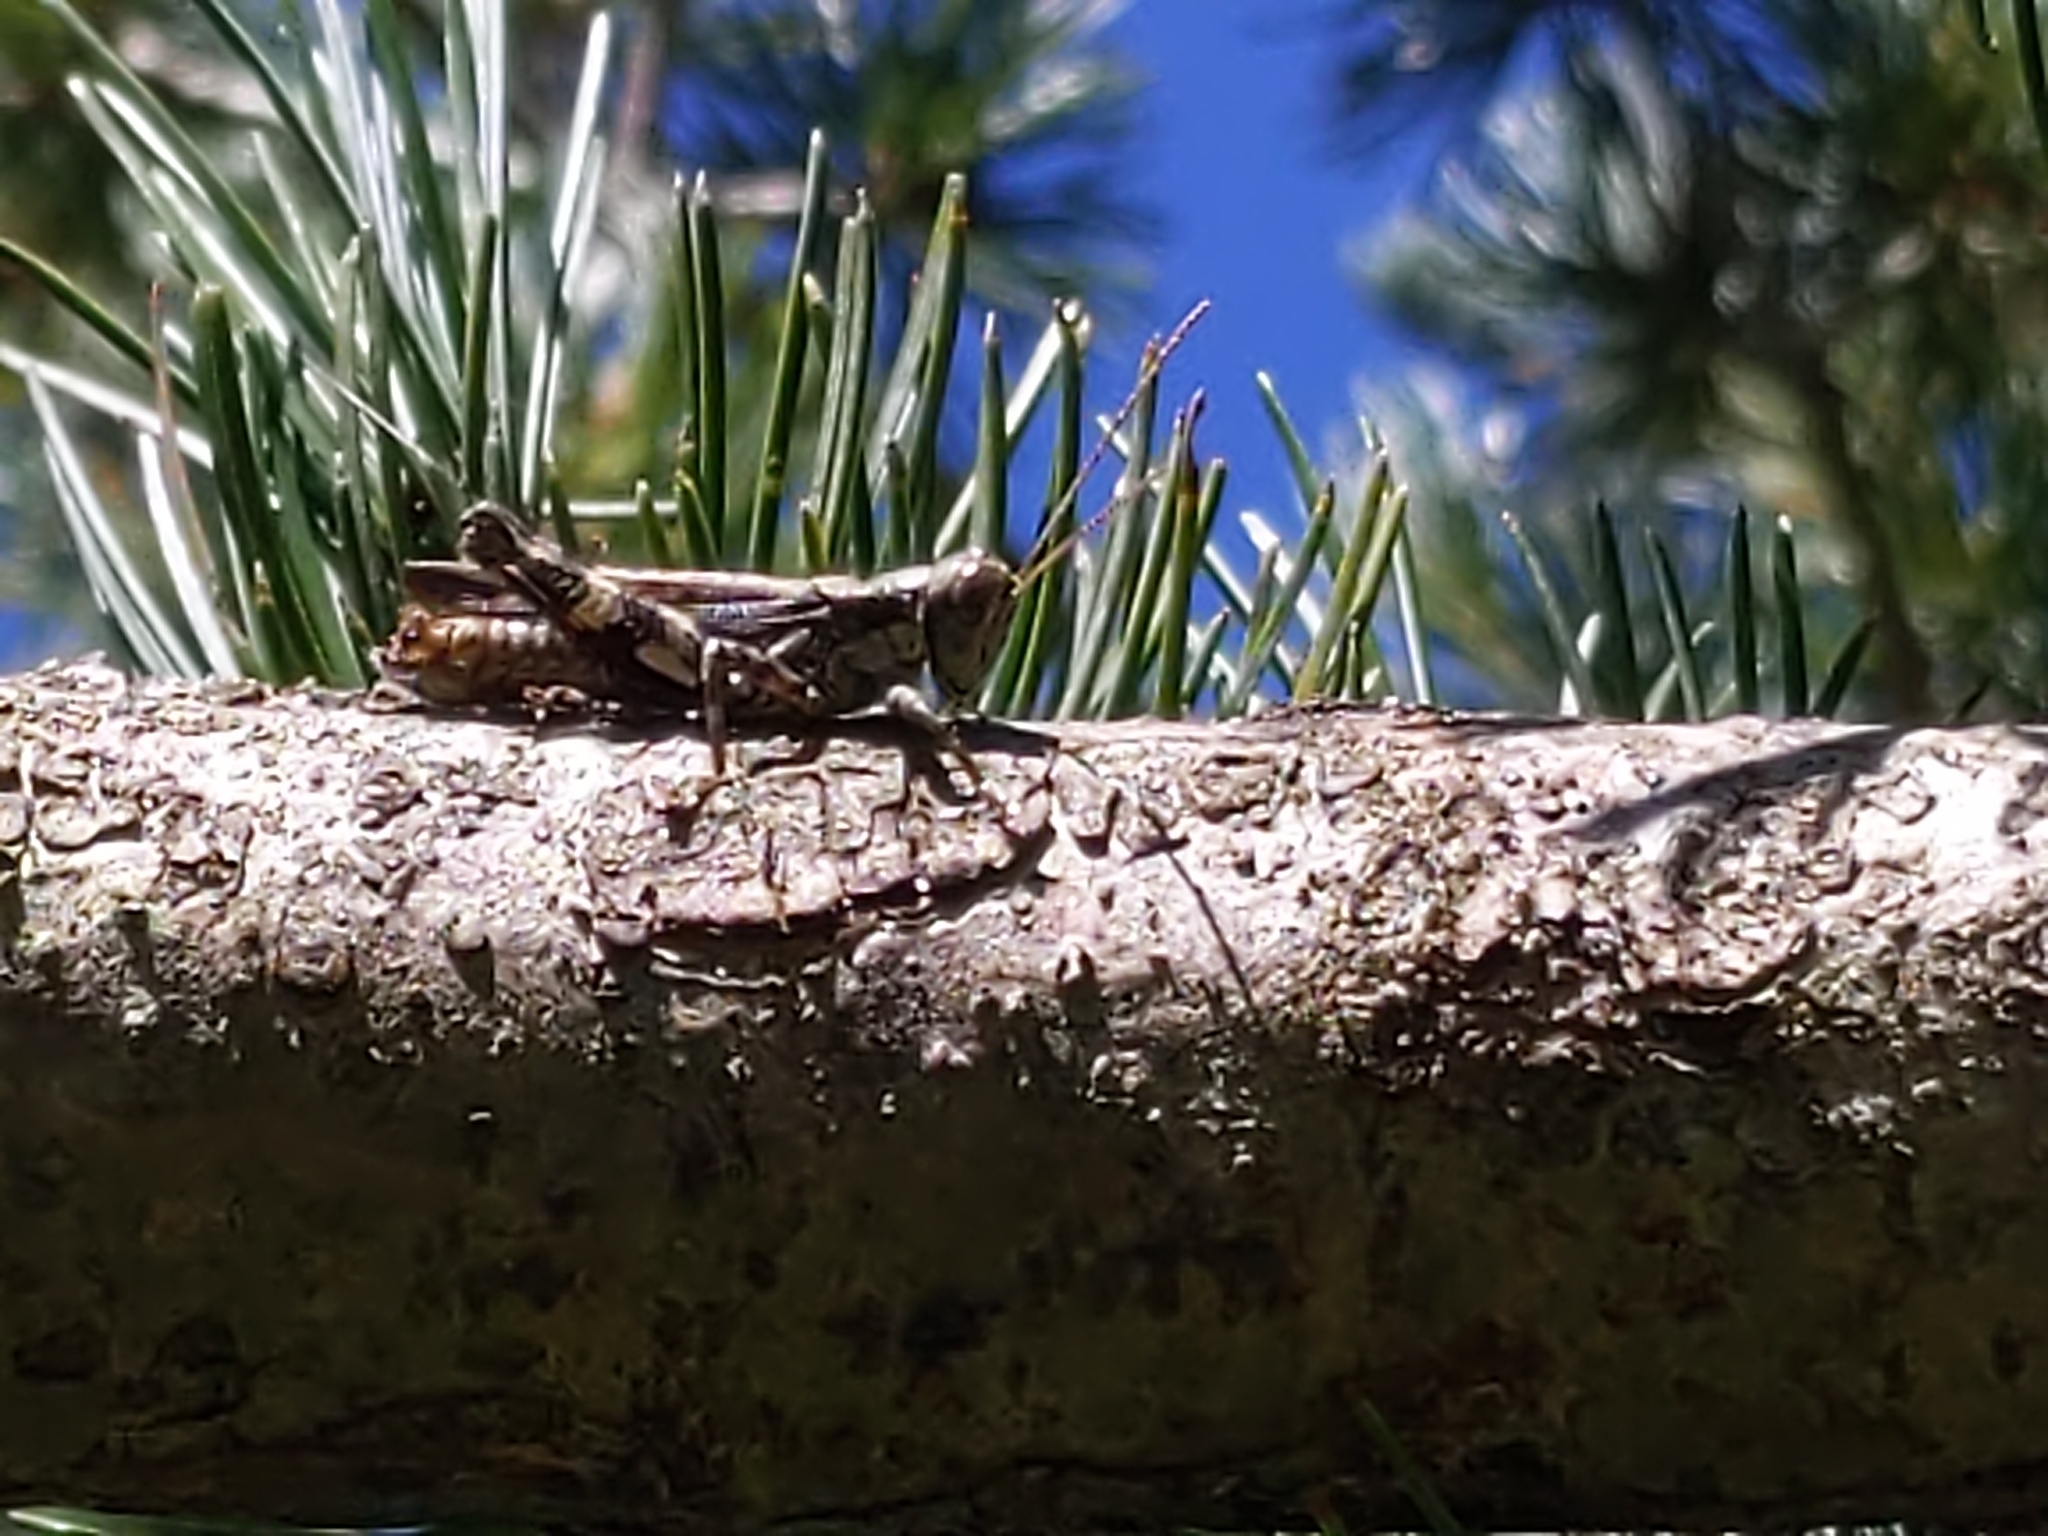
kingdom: Animalia
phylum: Arthropoda
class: Insecta
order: Orthoptera
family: Acrididae
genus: Melanoplus
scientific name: Melanoplus punctulatus
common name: Pine-tree spur-throat grasshopper
